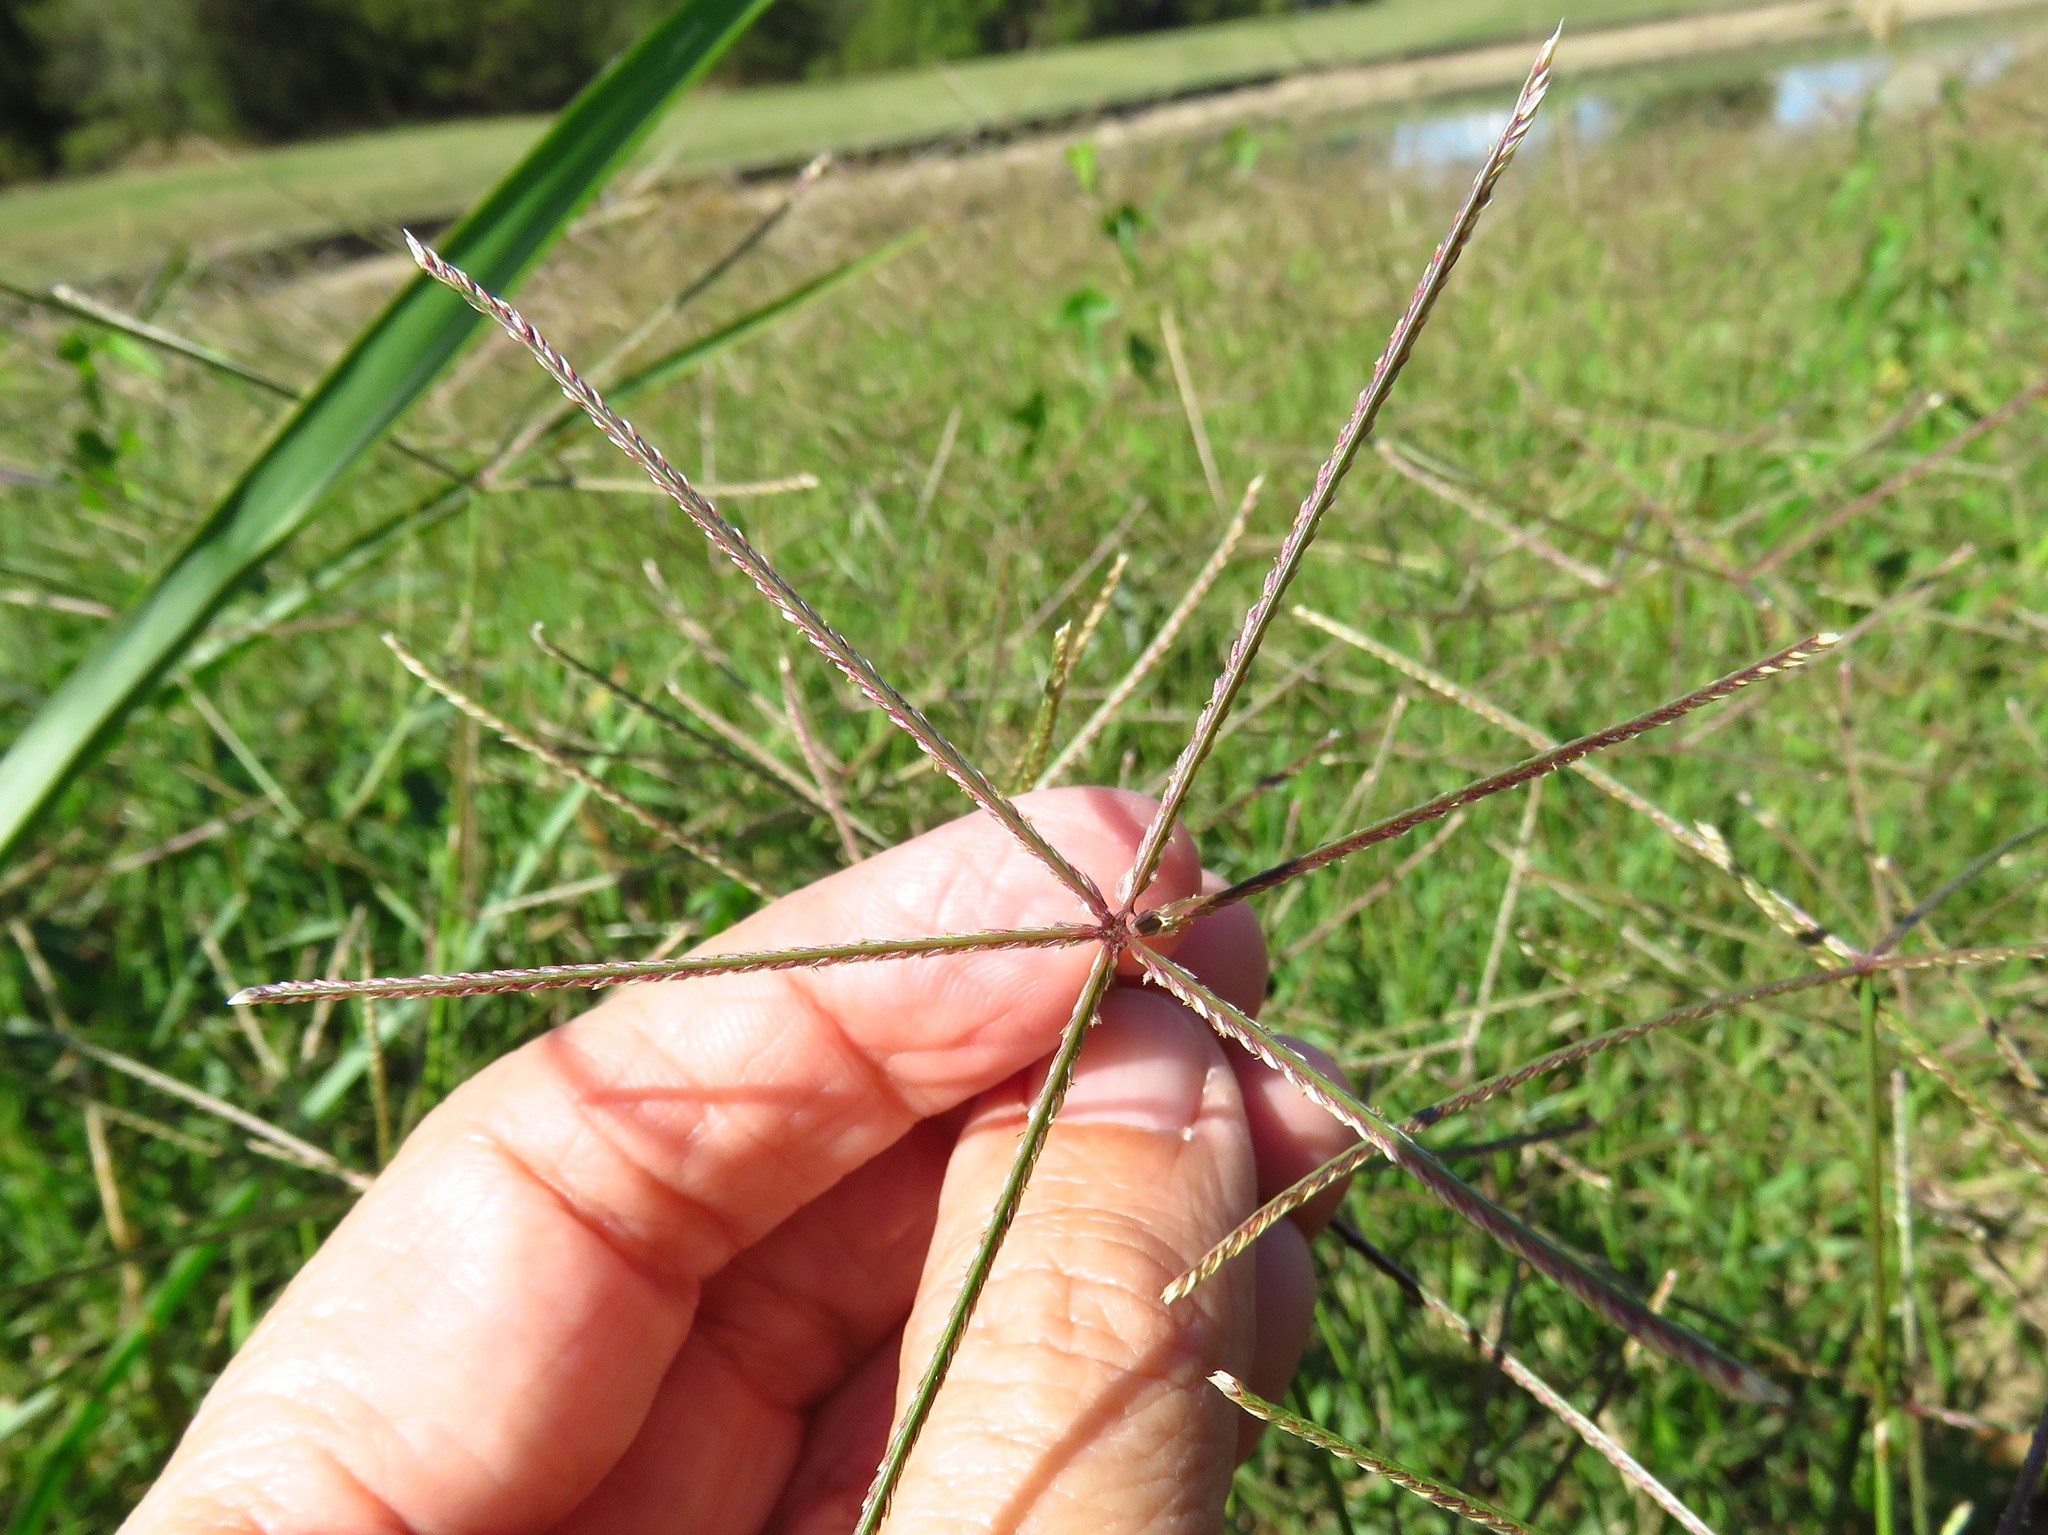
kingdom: Plantae
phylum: Tracheophyta
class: Liliopsida
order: Poales
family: Poaceae
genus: Cynodon
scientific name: Cynodon dactylon
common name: Bermuda grass
